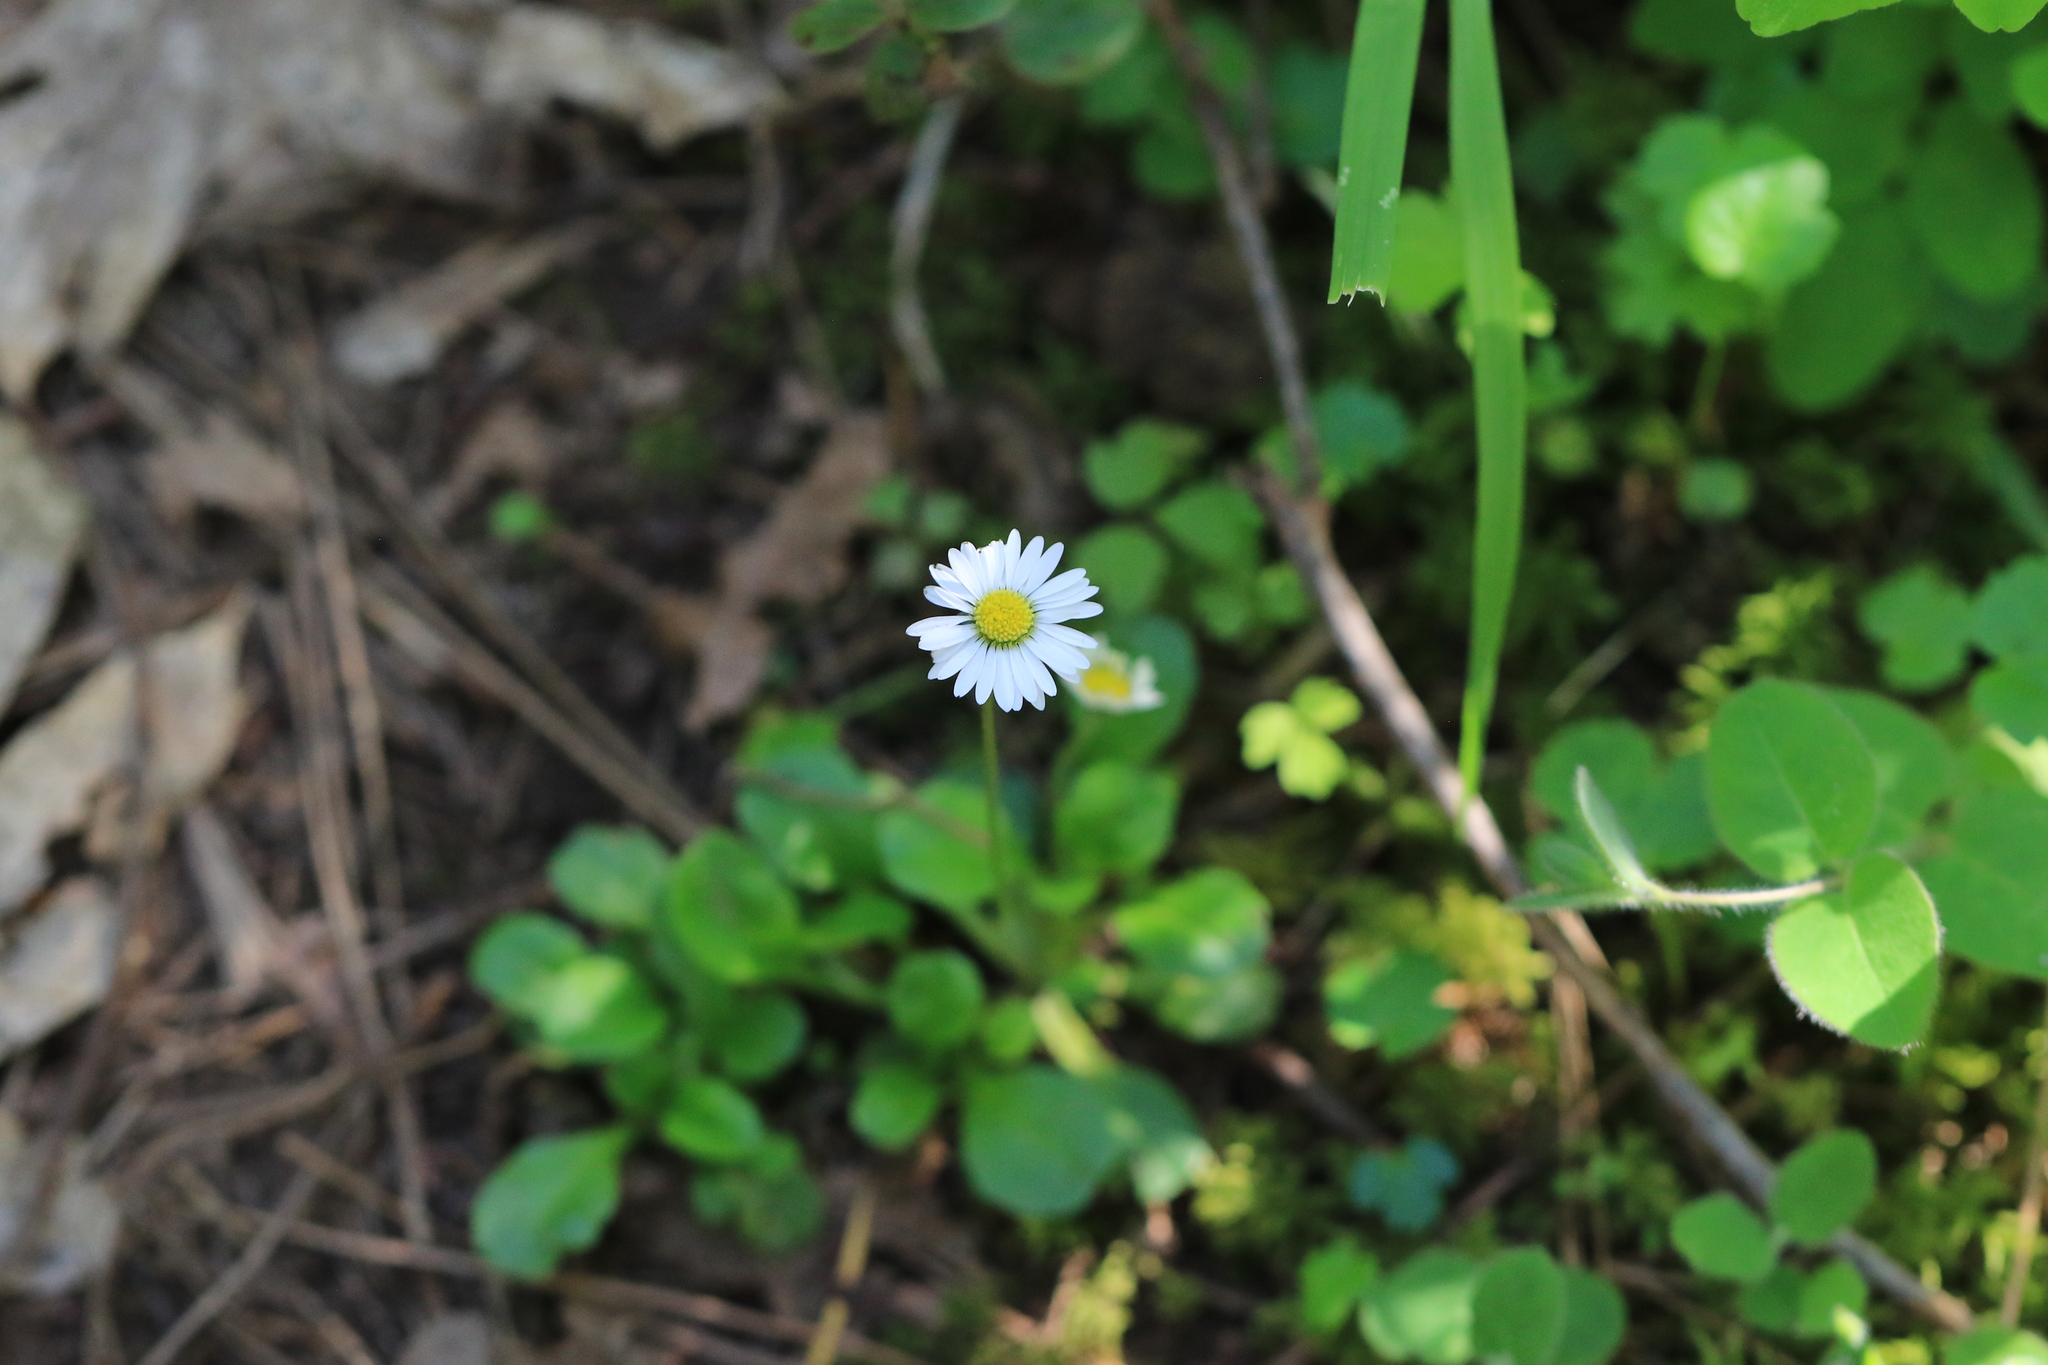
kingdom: Plantae
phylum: Tracheophyta
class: Magnoliopsida
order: Asterales
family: Asteraceae
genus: Bellis
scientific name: Bellis perennis
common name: Lawndaisy
